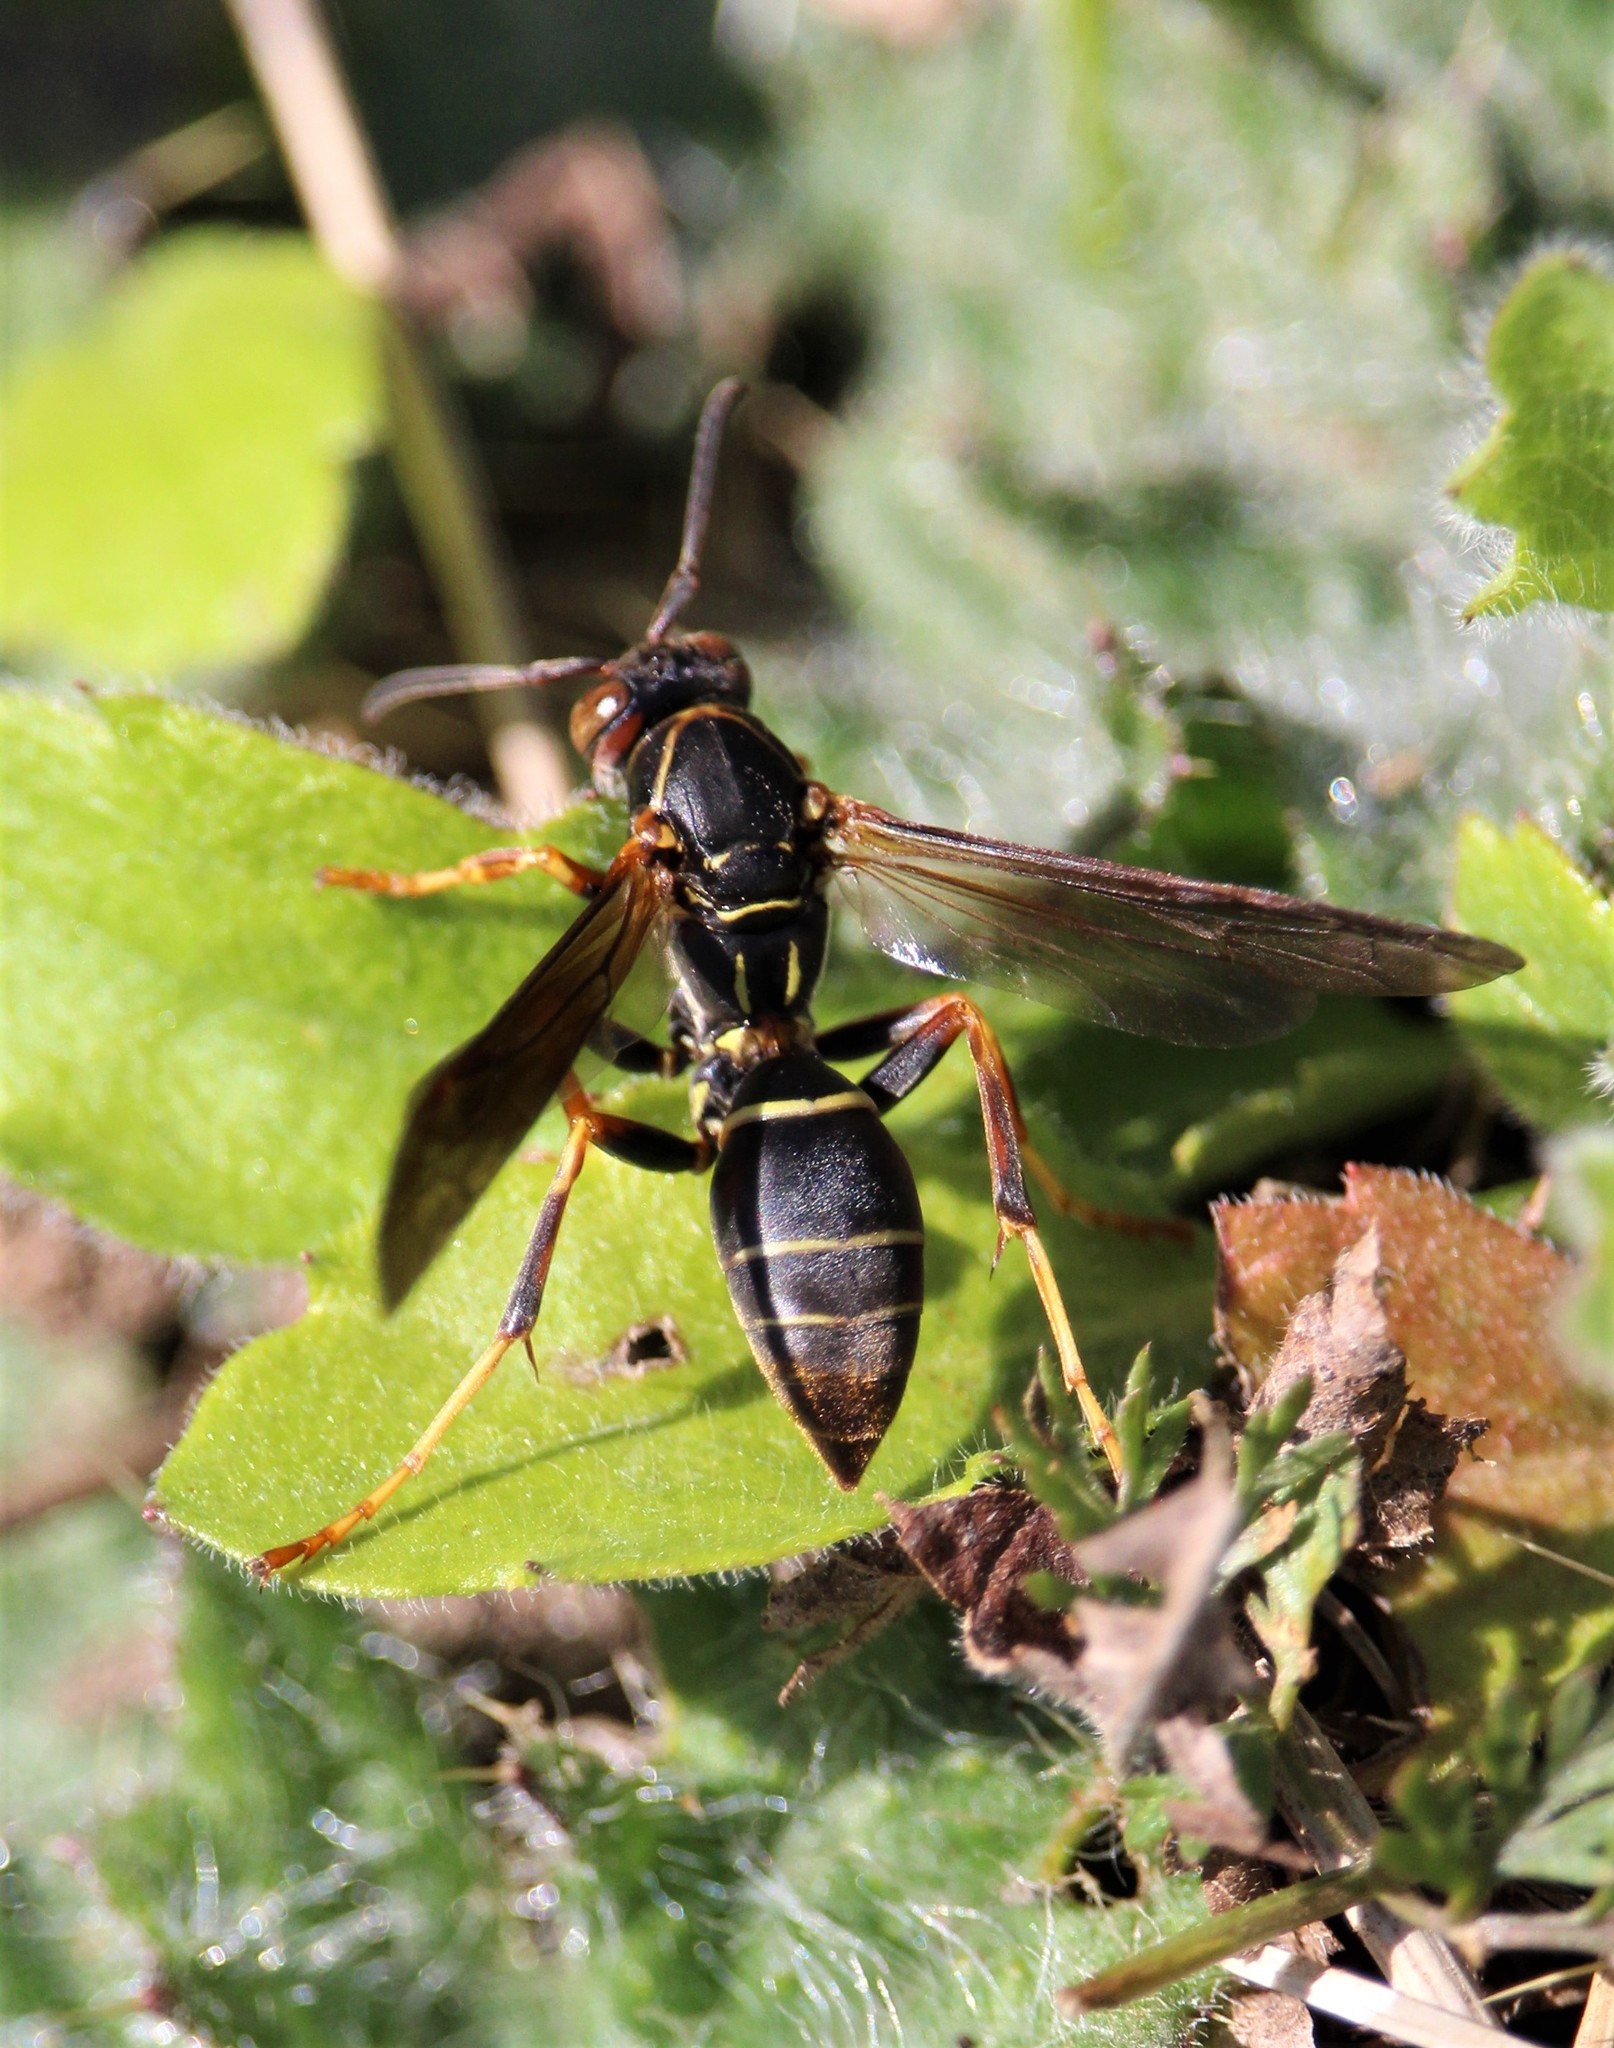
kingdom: Animalia
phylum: Arthropoda
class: Insecta
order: Hymenoptera
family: Eumenidae
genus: Polistes
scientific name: Polistes fuscatus
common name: Dark paper wasp
